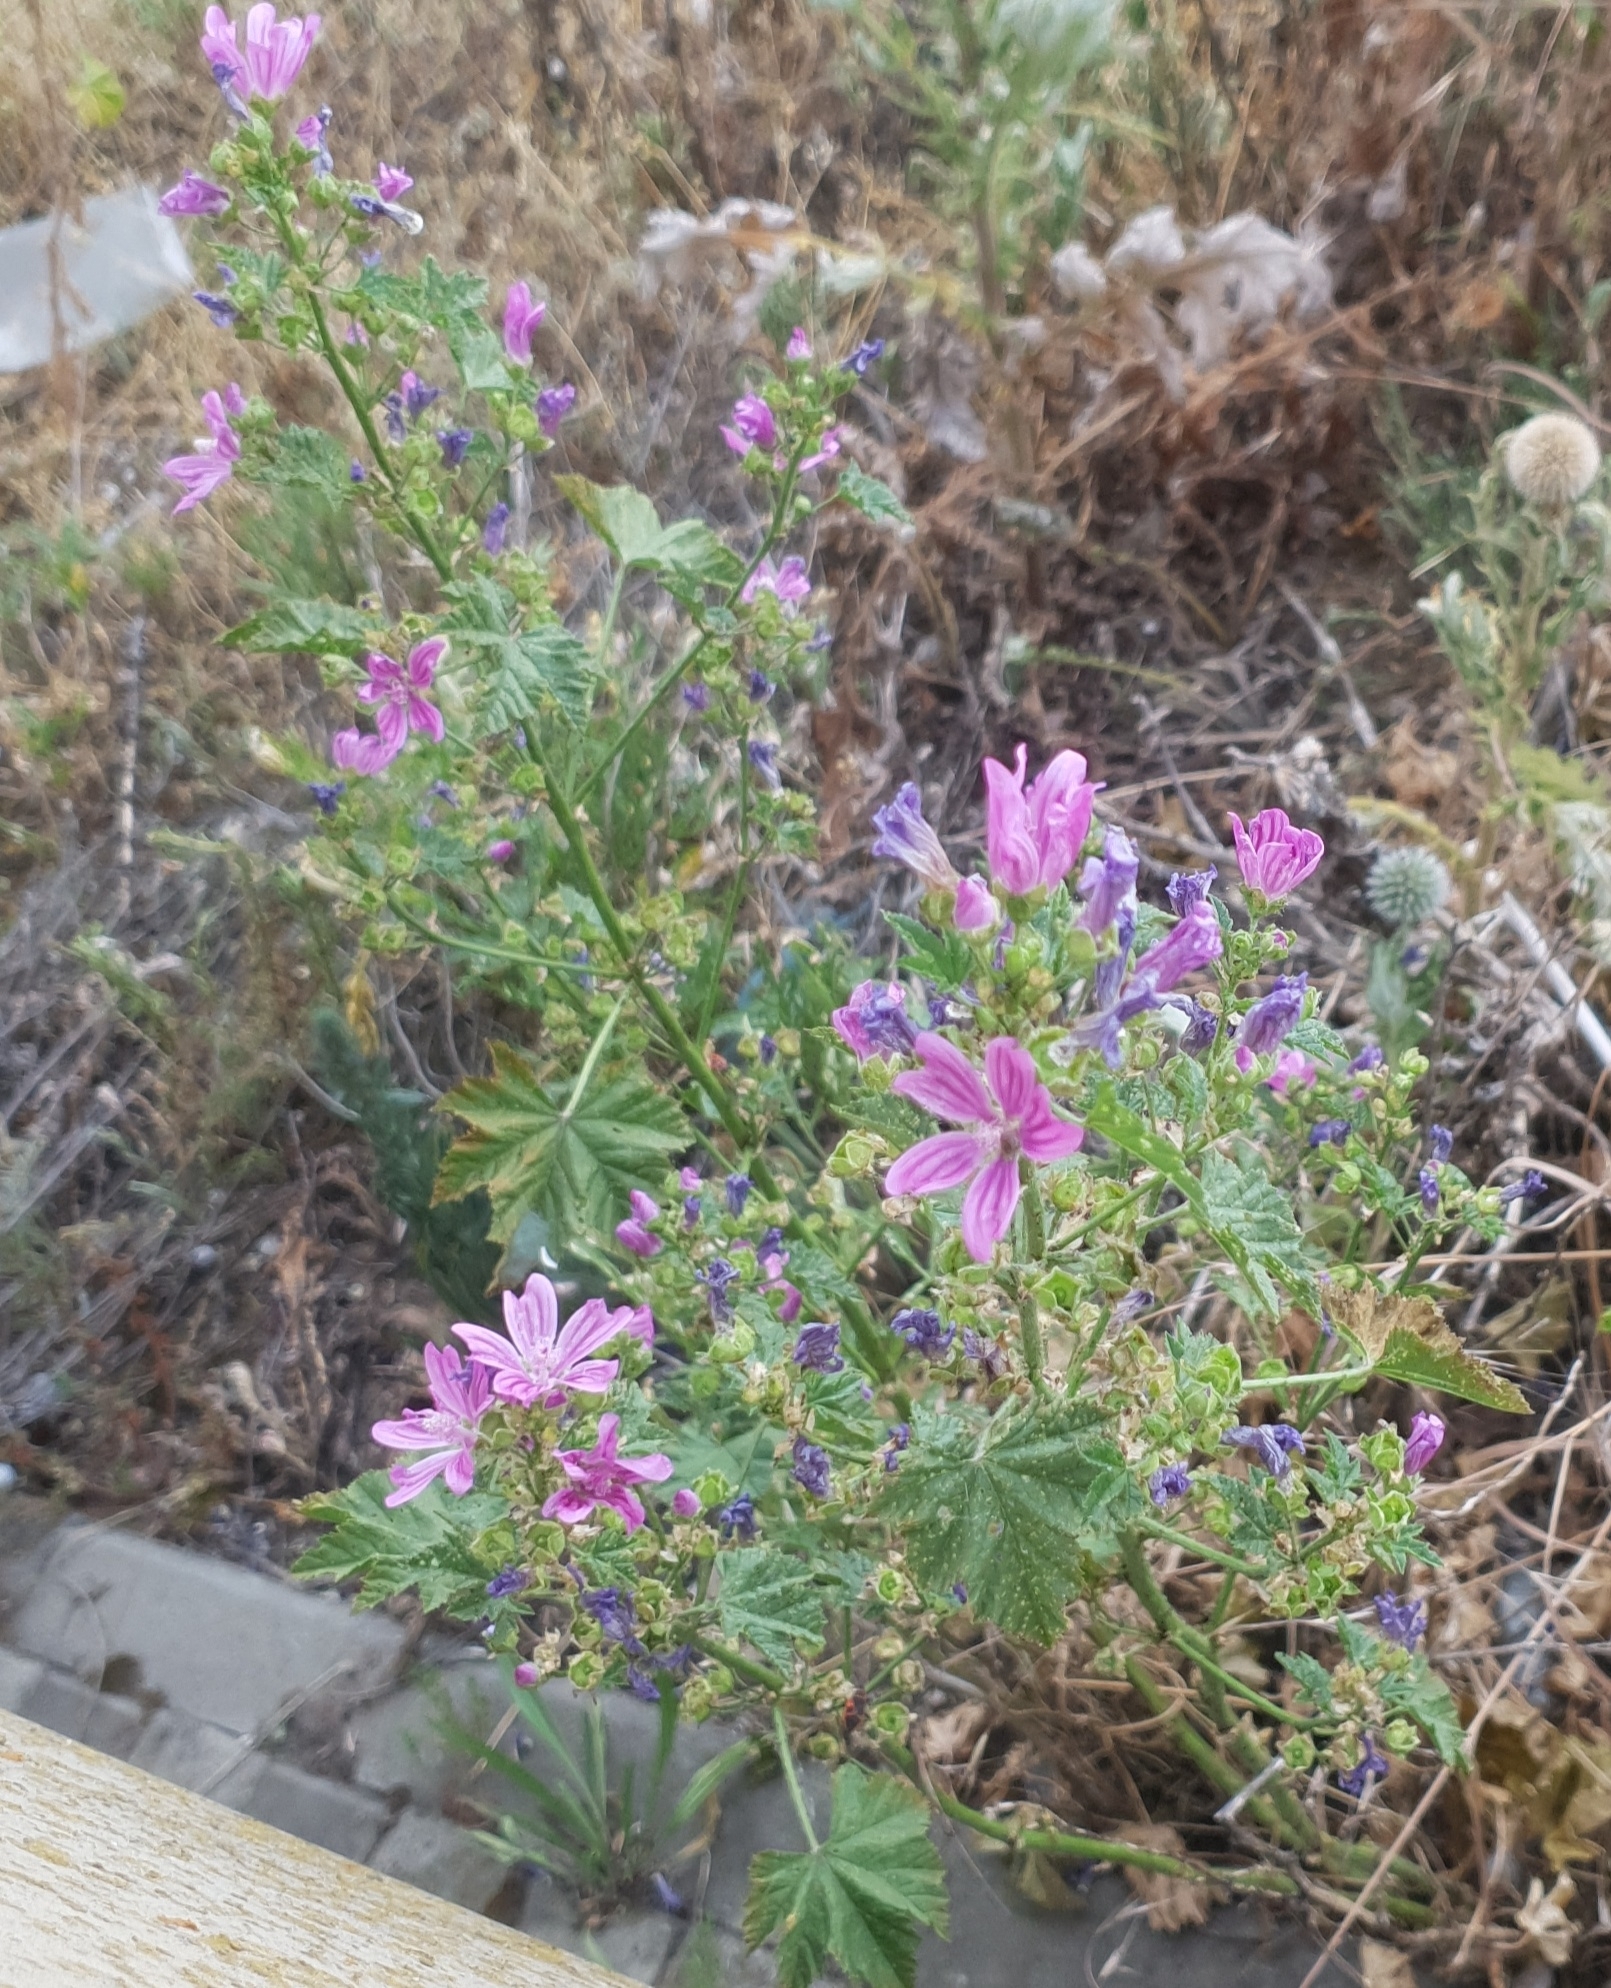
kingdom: Plantae
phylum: Tracheophyta
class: Magnoliopsida
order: Malvales
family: Malvaceae
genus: Malva
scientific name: Malva sylvestris
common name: Common mallow
